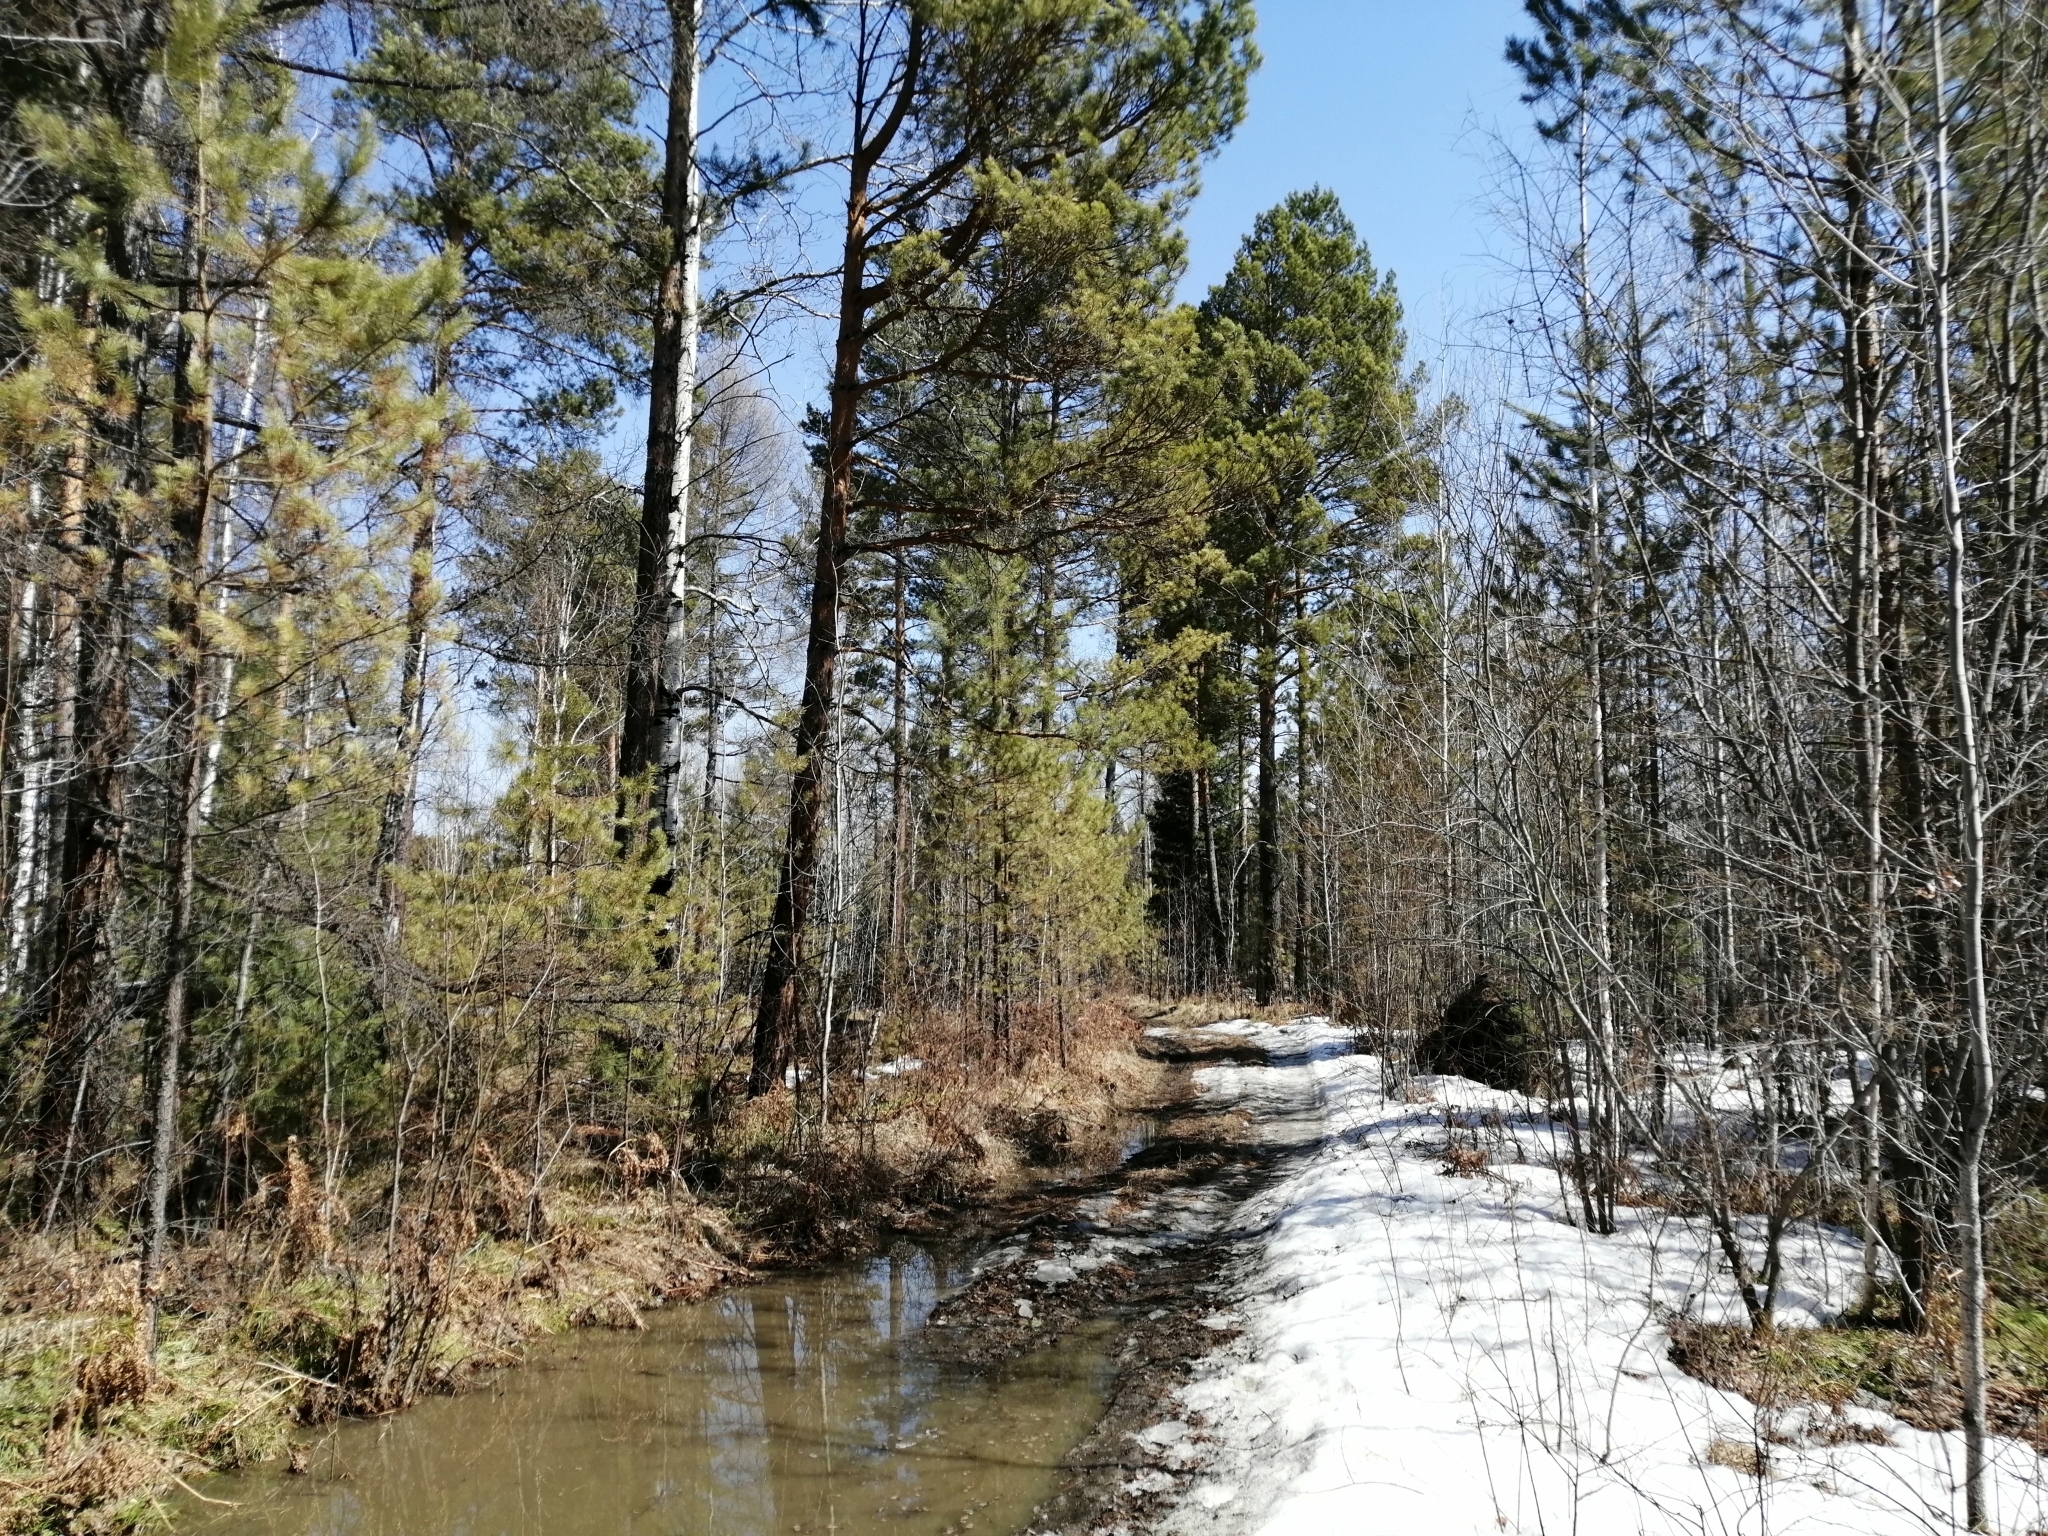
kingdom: Plantae
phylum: Tracheophyta
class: Pinopsida
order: Pinales
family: Pinaceae
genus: Pinus
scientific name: Pinus sylvestris
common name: Scots pine
